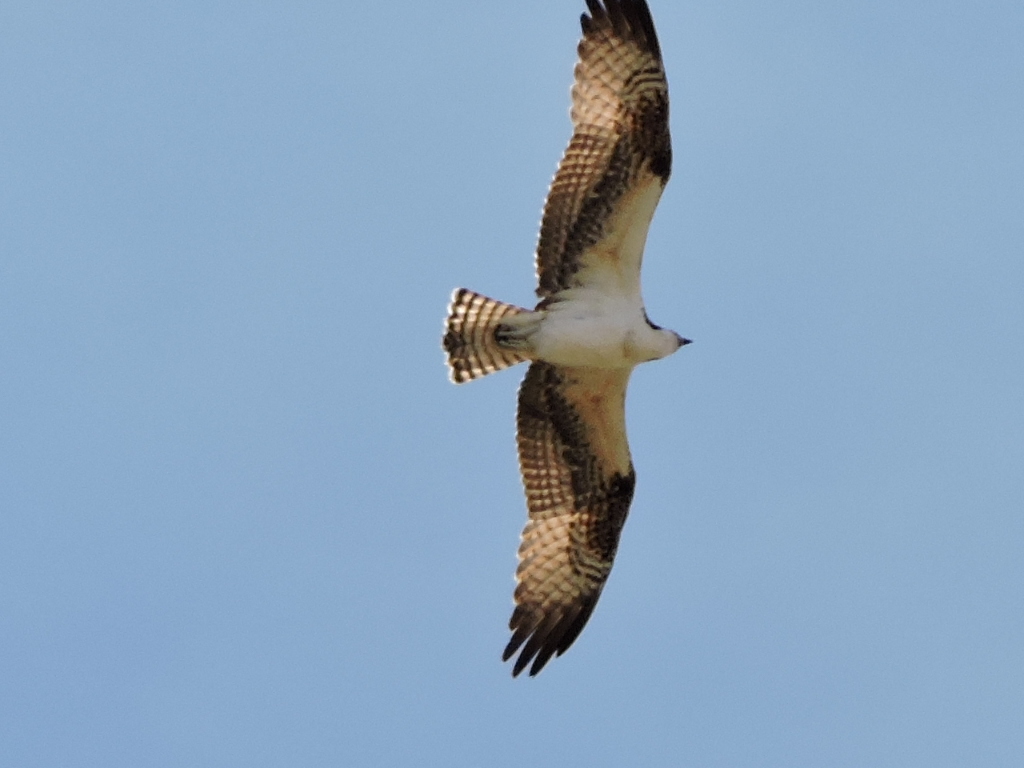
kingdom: Animalia
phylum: Chordata
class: Aves
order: Accipitriformes
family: Pandionidae
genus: Pandion
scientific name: Pandion haliaetus
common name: Osprey
